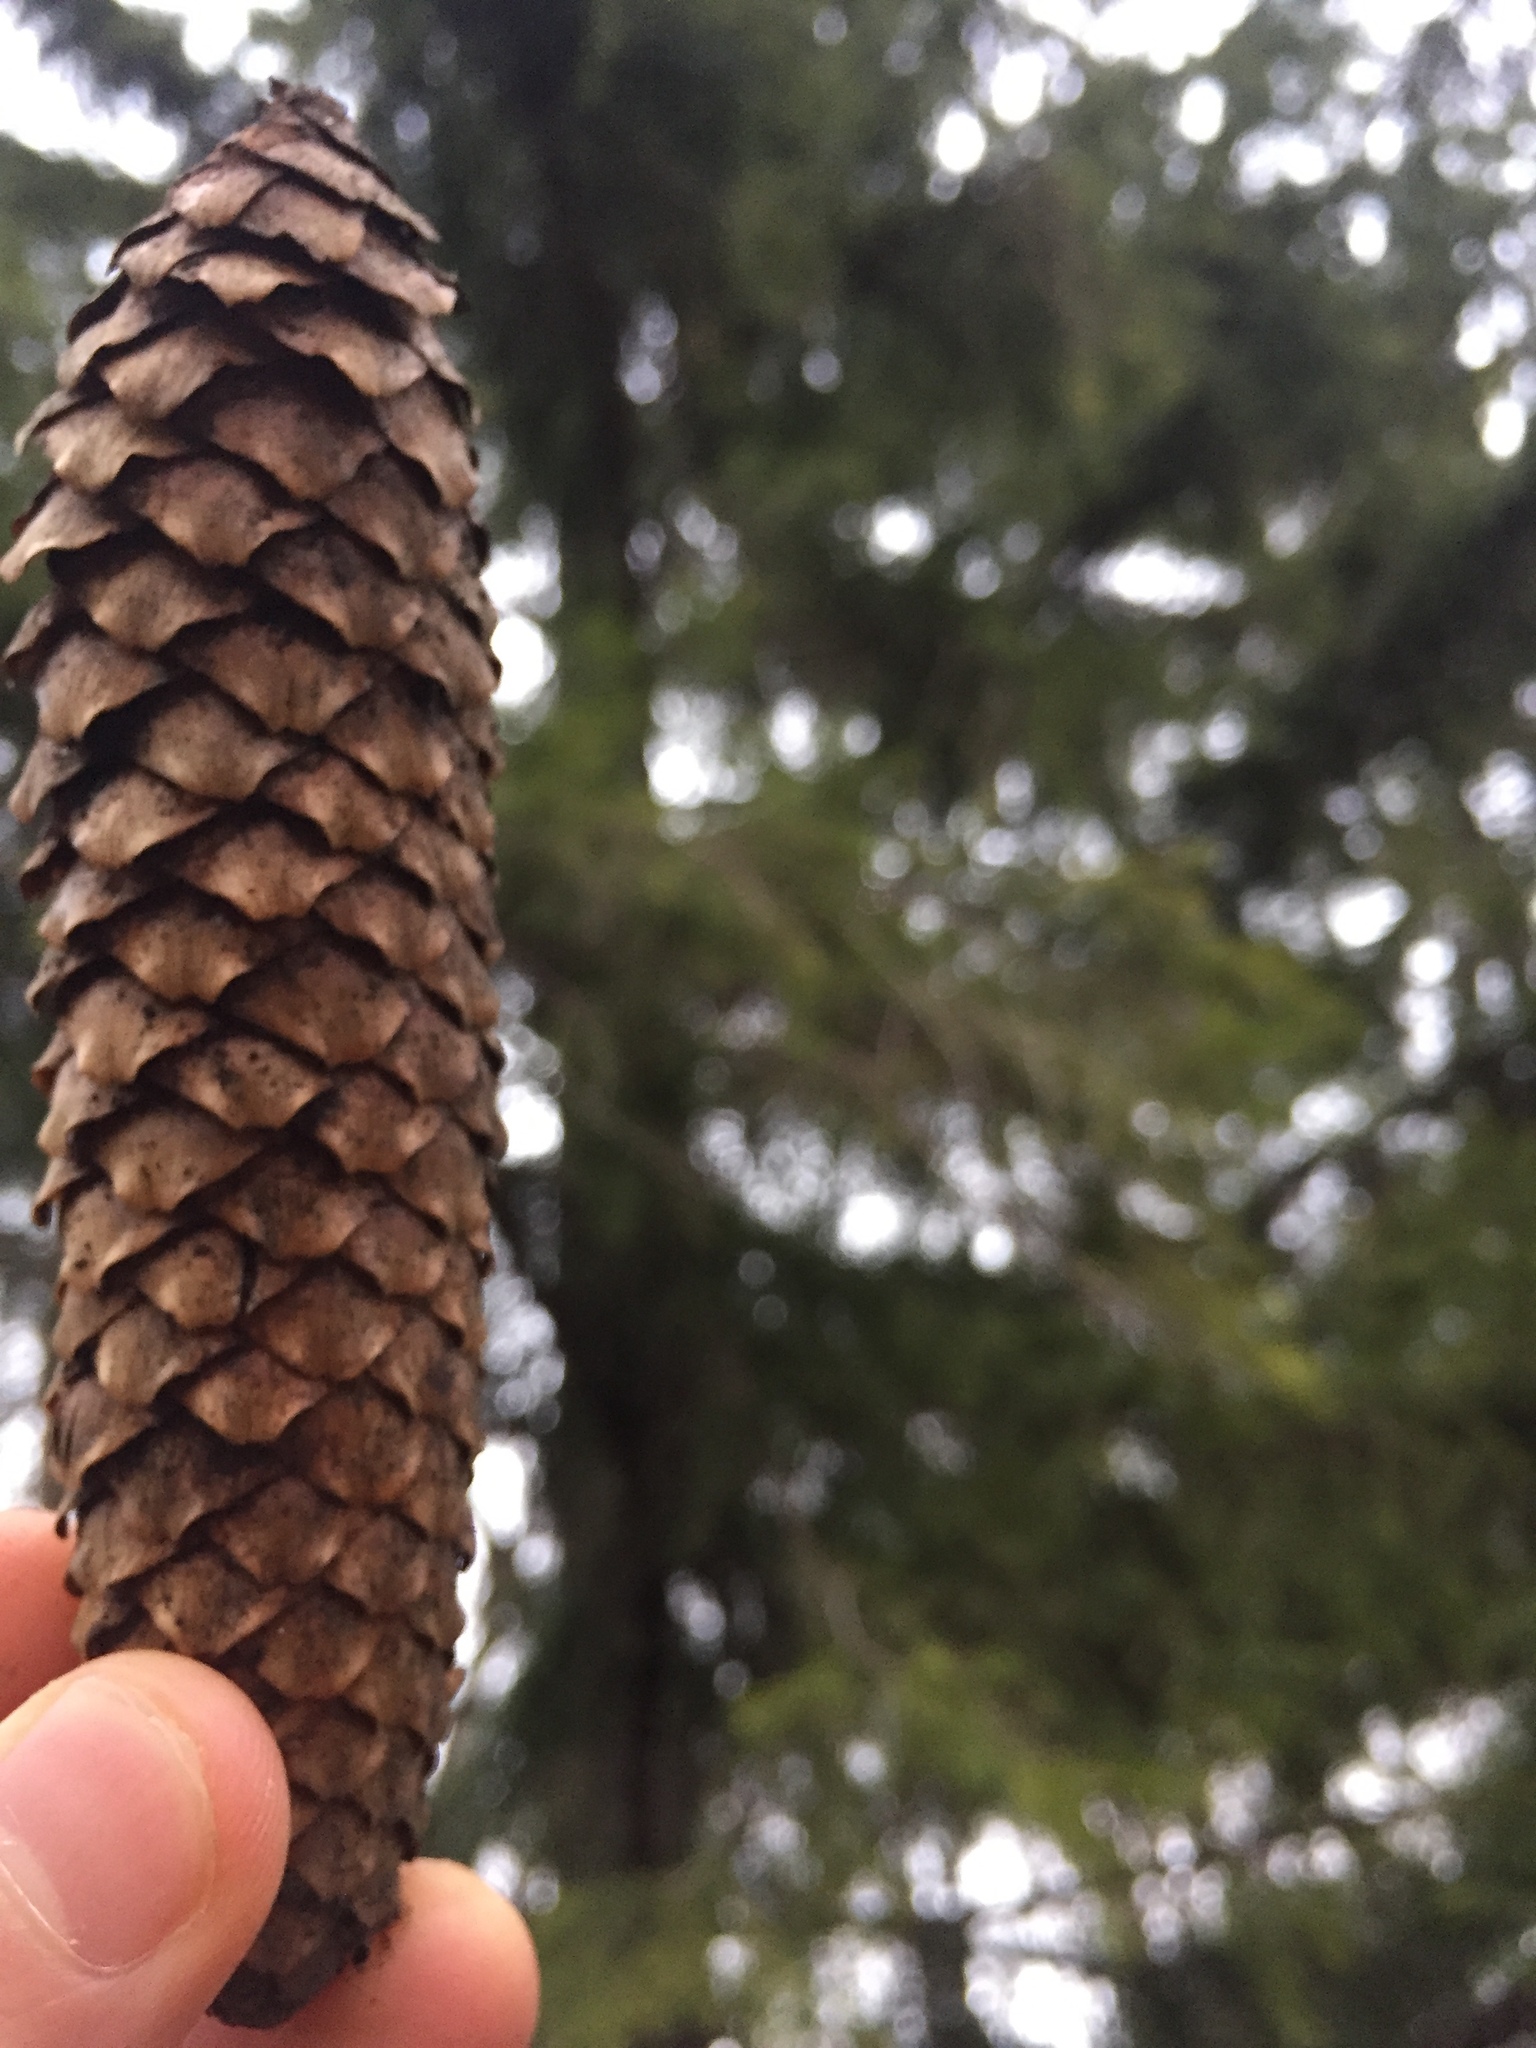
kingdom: Plantae
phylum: Tracheophyta
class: Pinopsida
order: Pinales
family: Pinaceae
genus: Picea
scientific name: Picea abies
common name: Norway spruce
